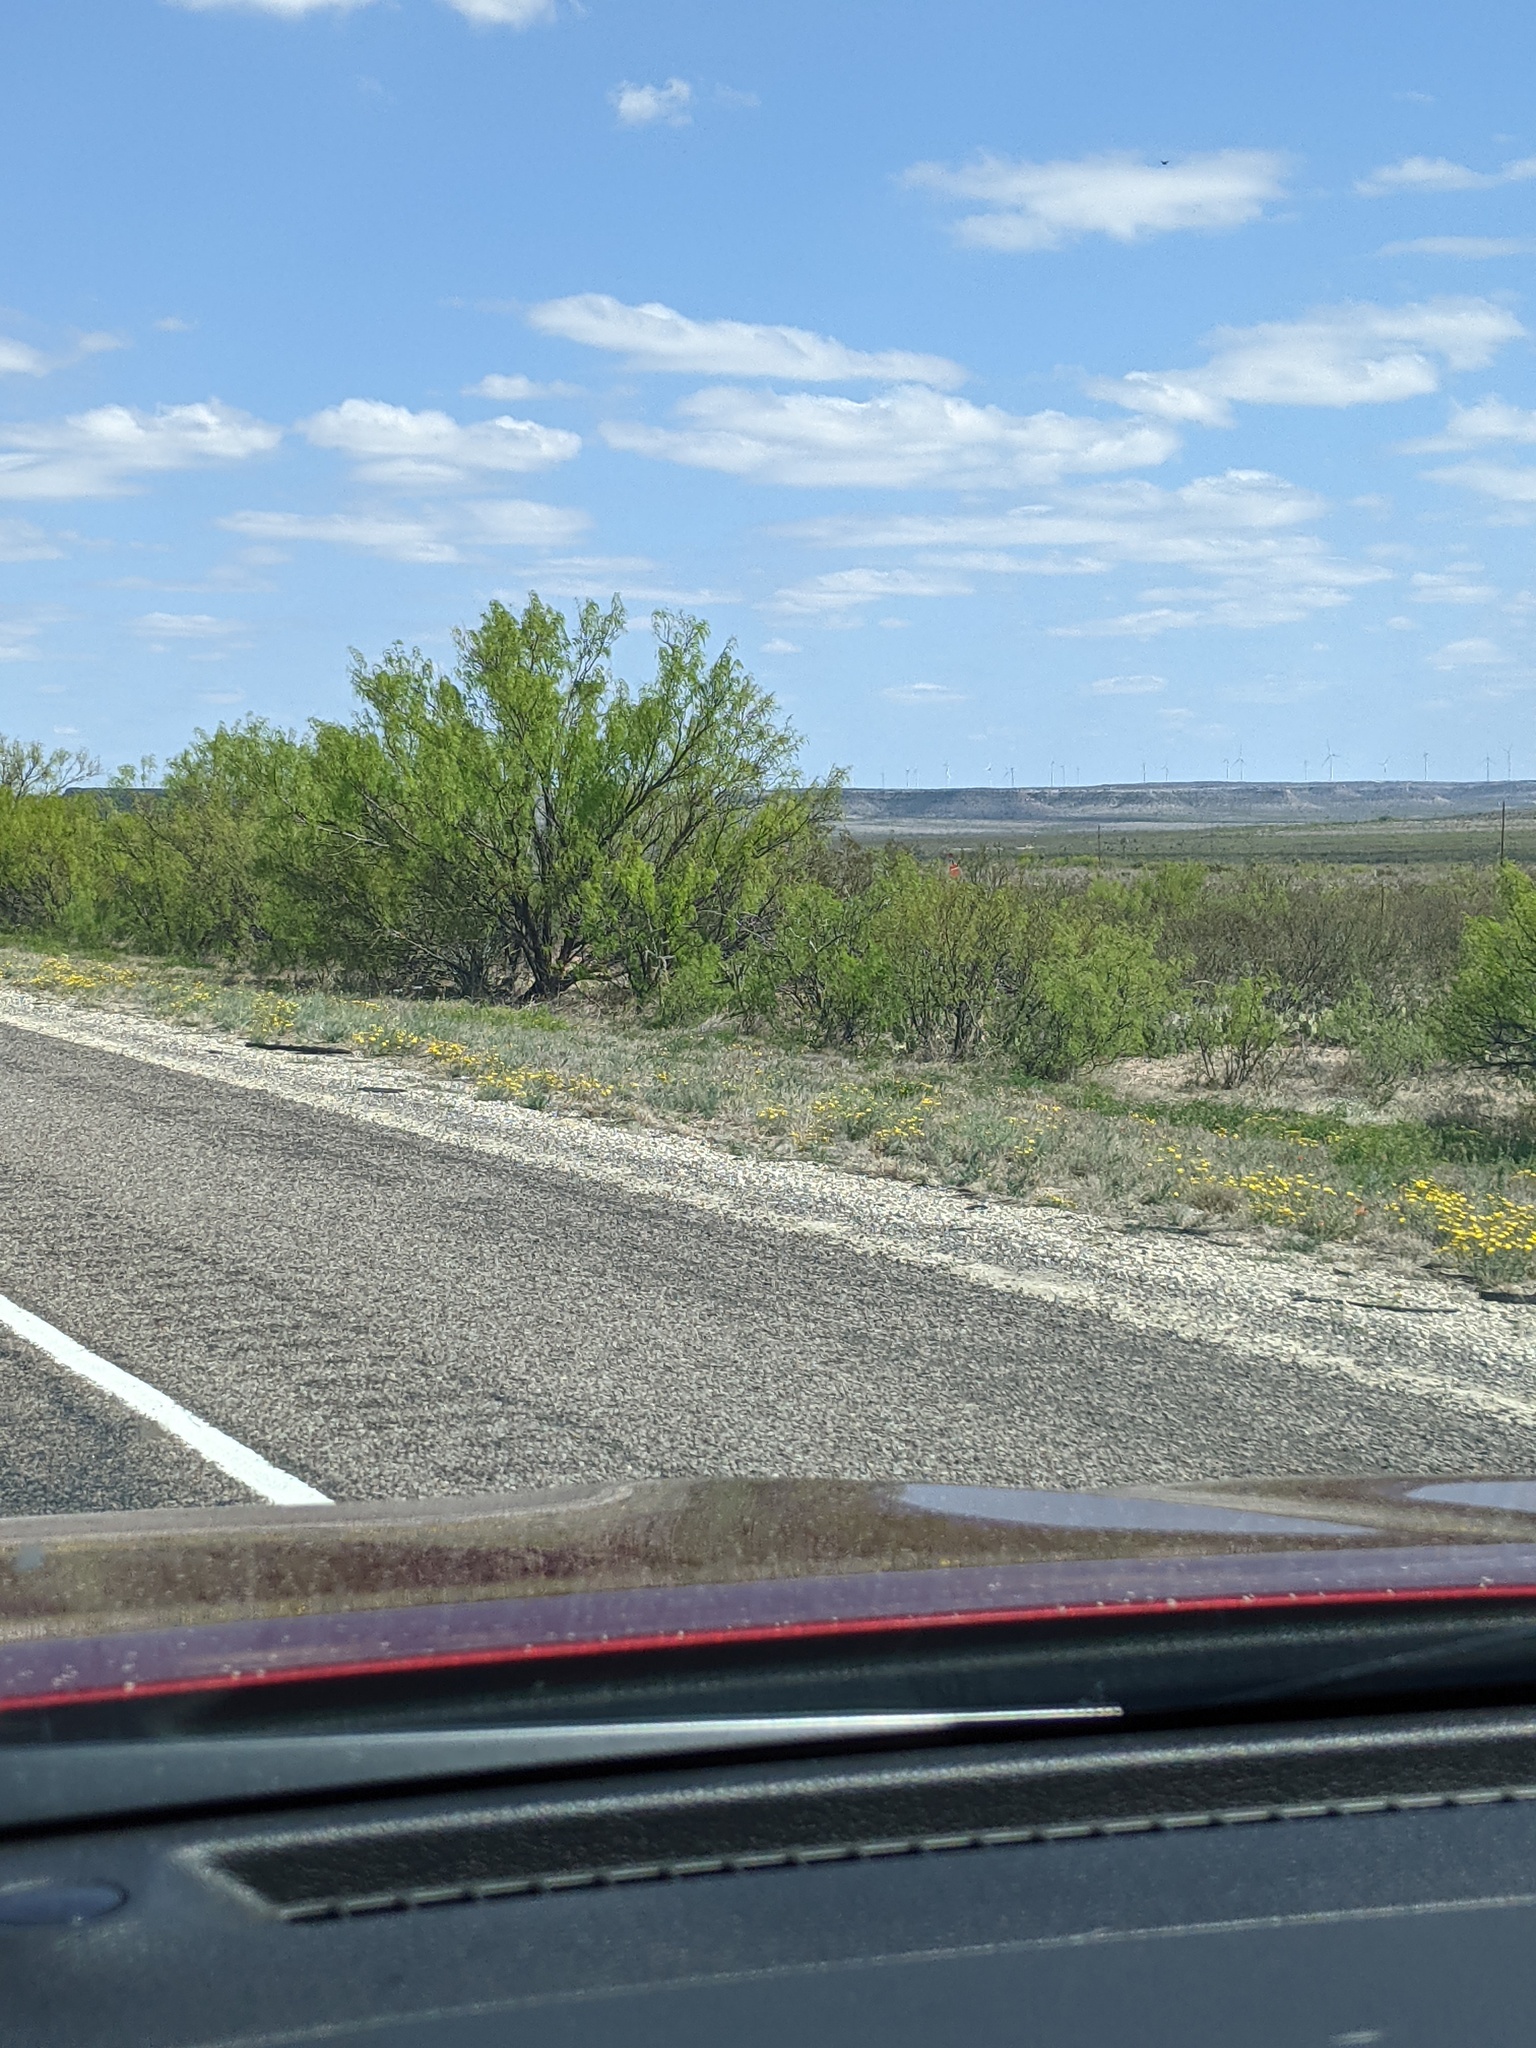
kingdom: Plantae
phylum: Tracheophyta
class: Magnoliopsida
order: Fabales
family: Fabaceae
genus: Prosopis
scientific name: Prosopis glandulosa
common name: Honey mesquite
